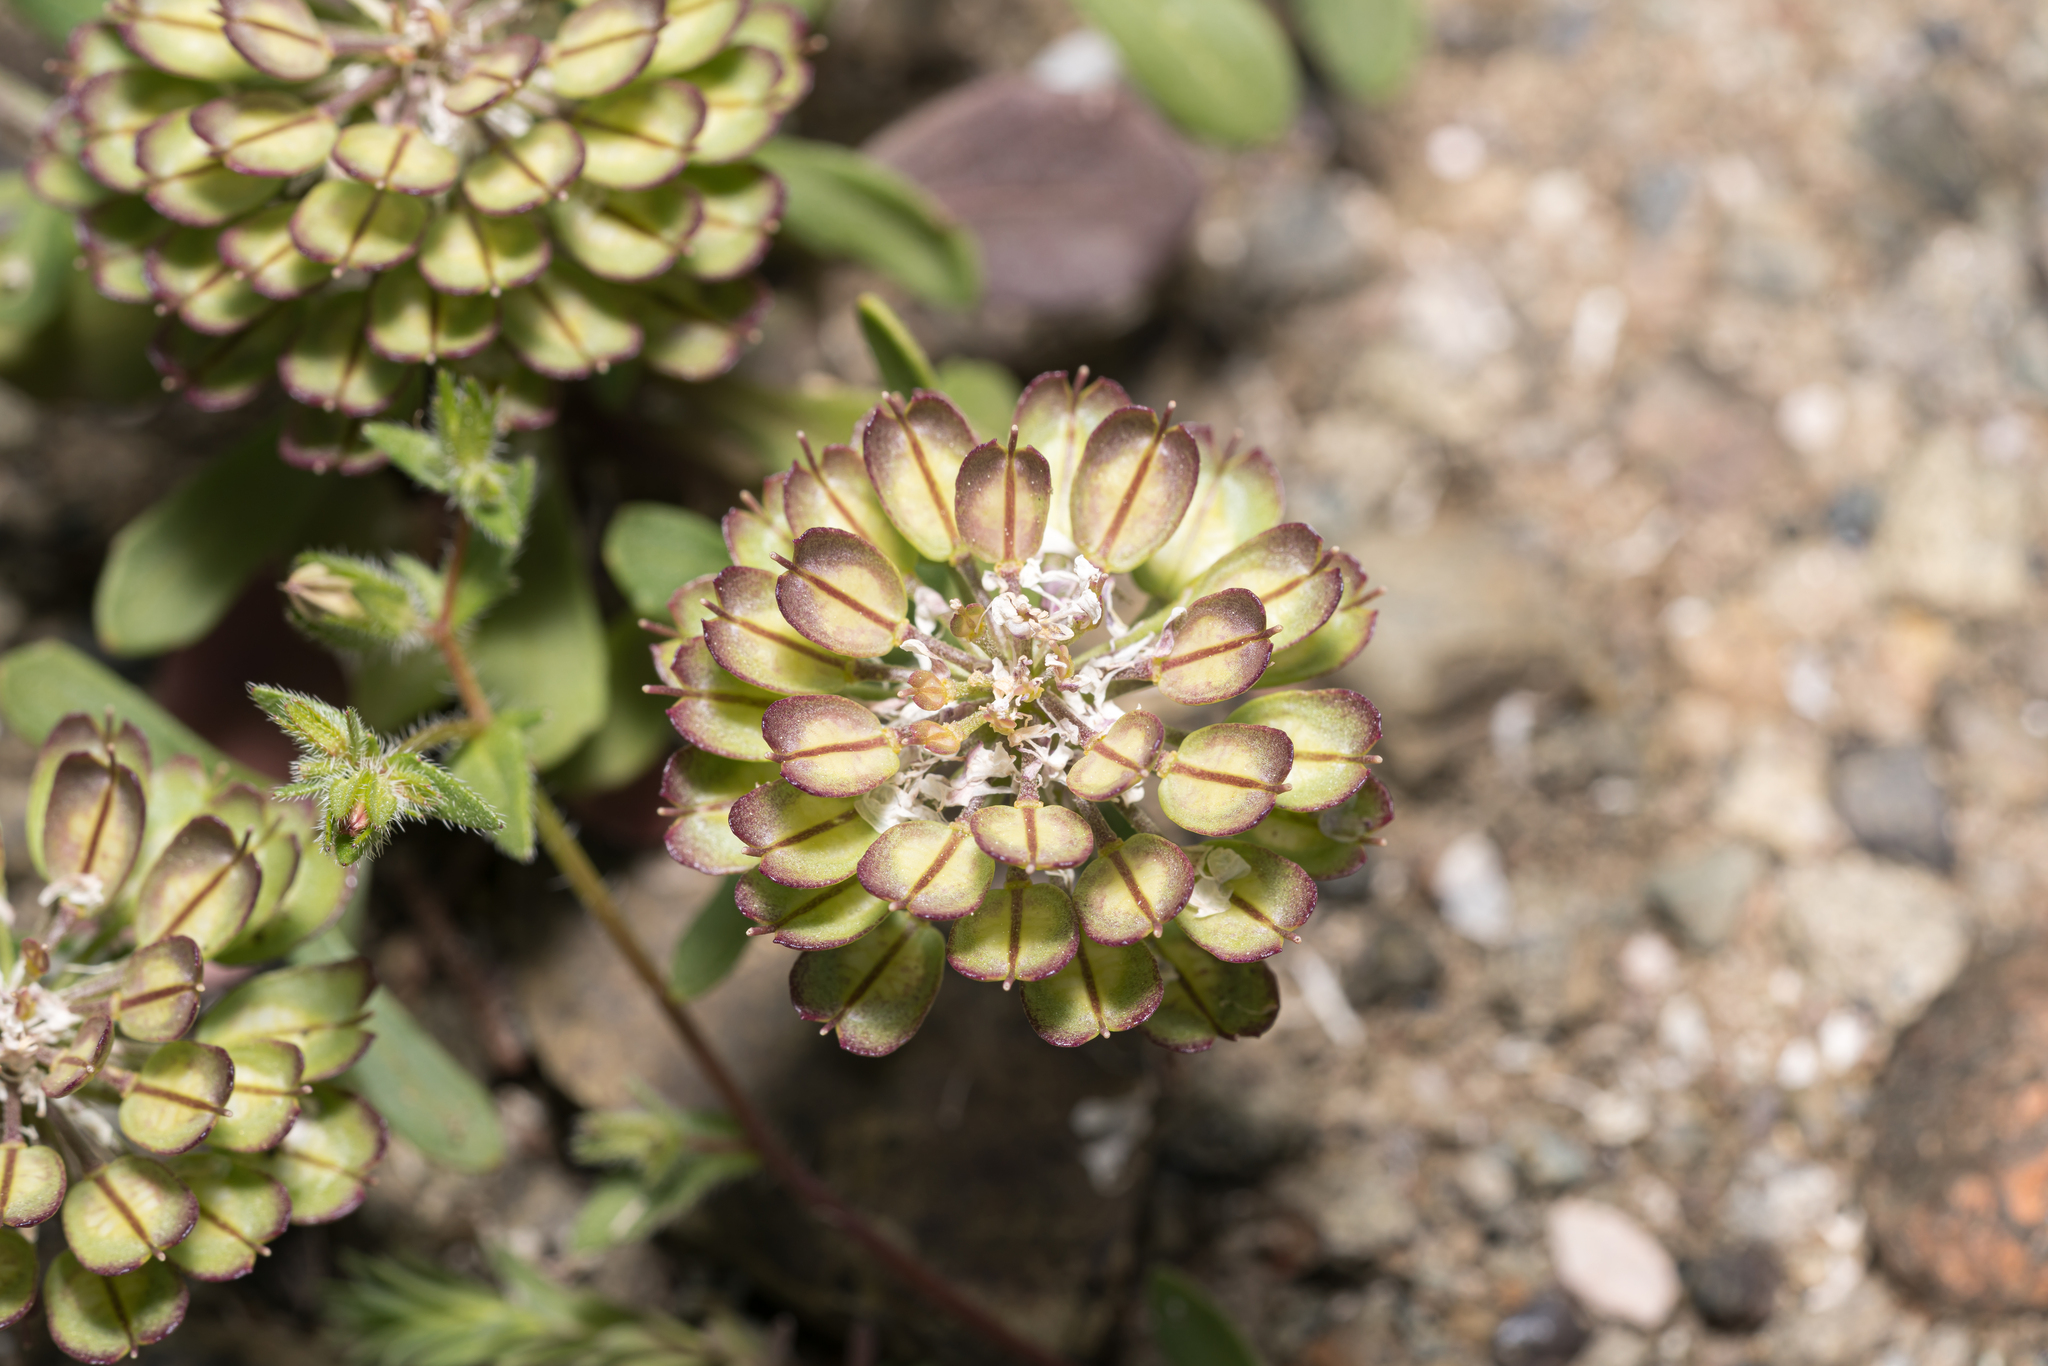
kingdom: Plantae
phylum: Tracheophyta
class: Magnoliopsida
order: Brassicales
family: Brassicaceae
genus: Iberis
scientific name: Iberis carnosa
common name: Pruit's candytuft
